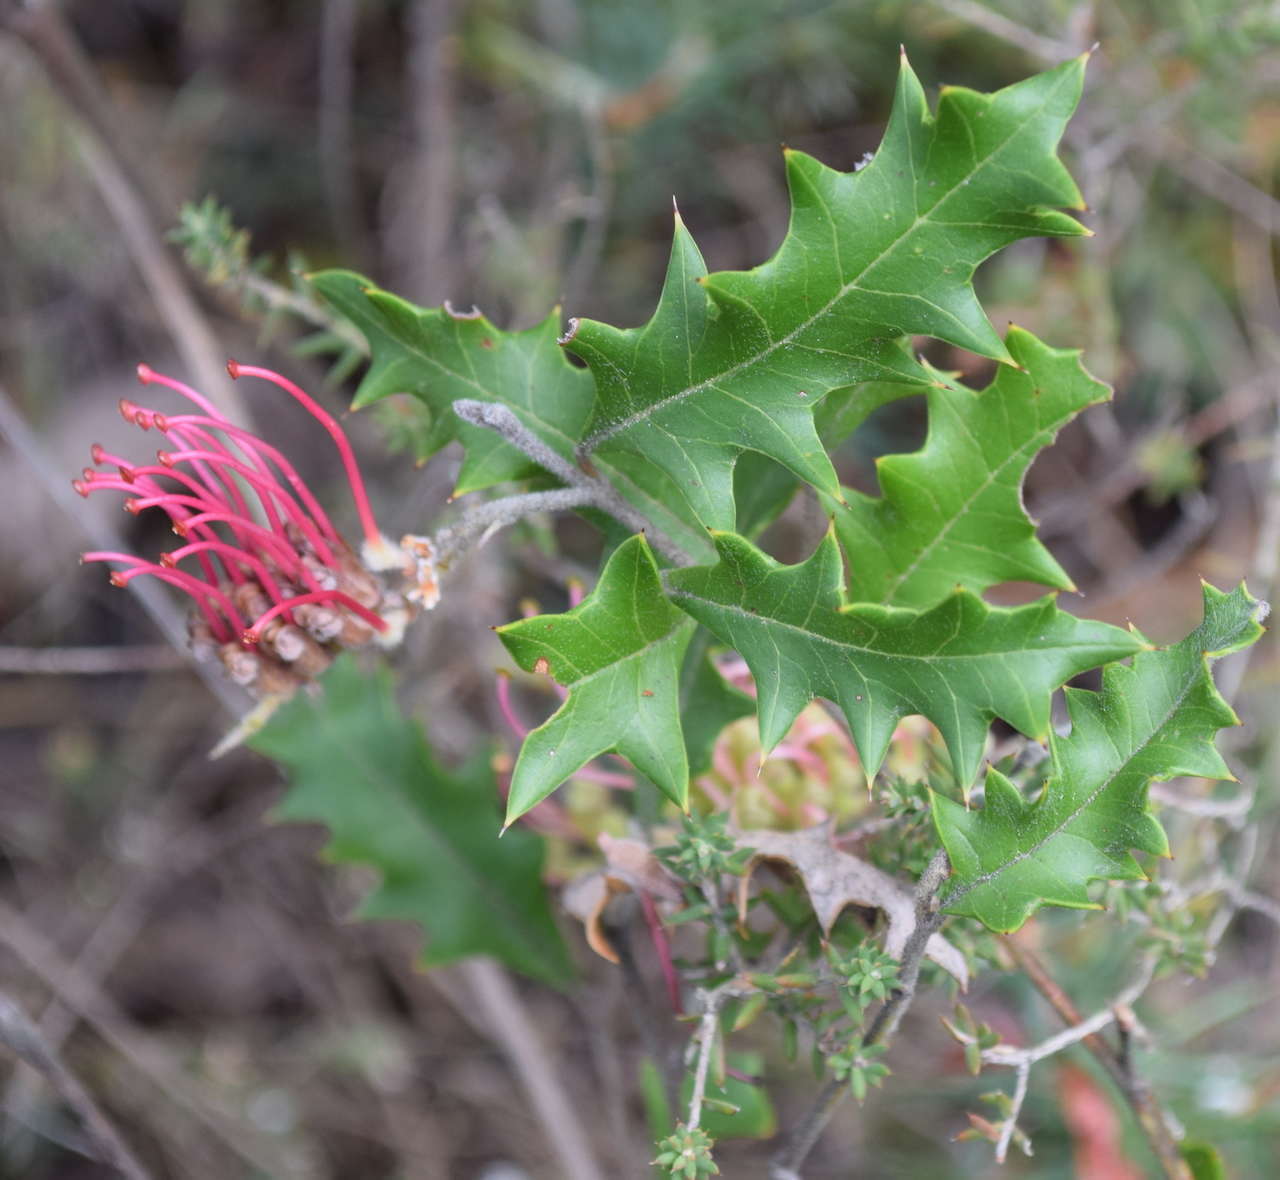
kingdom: Plantae
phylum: Tracheophyta
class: Magnoliopsida
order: Proteales
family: Proteaceae
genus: Grevillea
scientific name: Grevillea aquifolium
